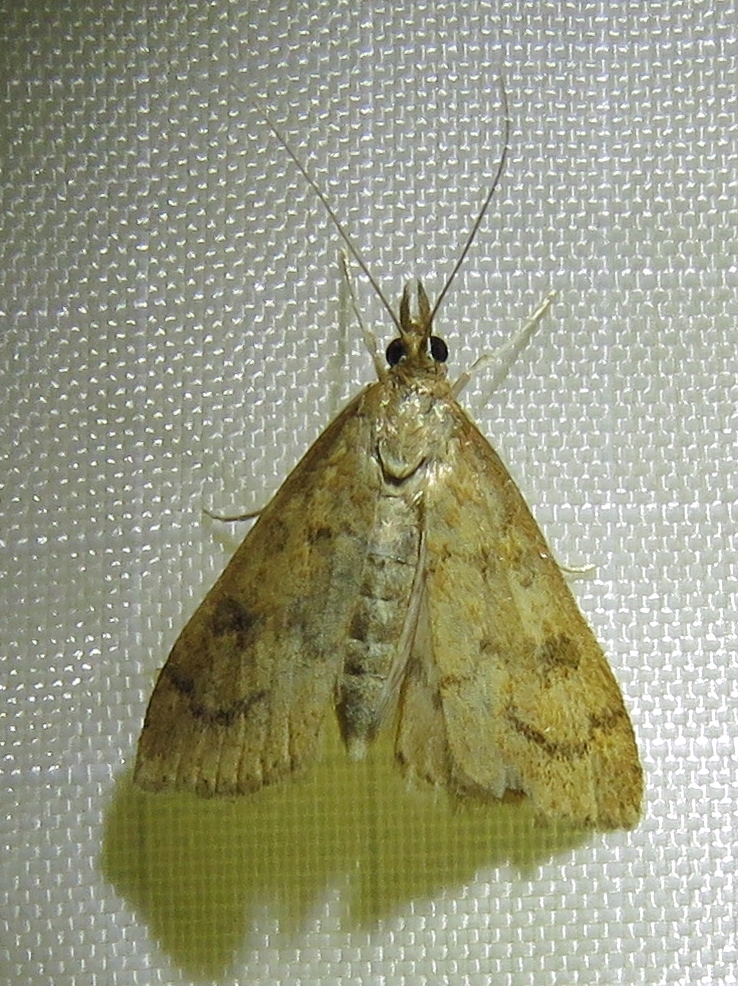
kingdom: Animalia
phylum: Arthropoda
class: Insecta
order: Lepidoptera
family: Crambidae
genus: Udea
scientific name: Udea rubigalis
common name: Celery leaftier moth
